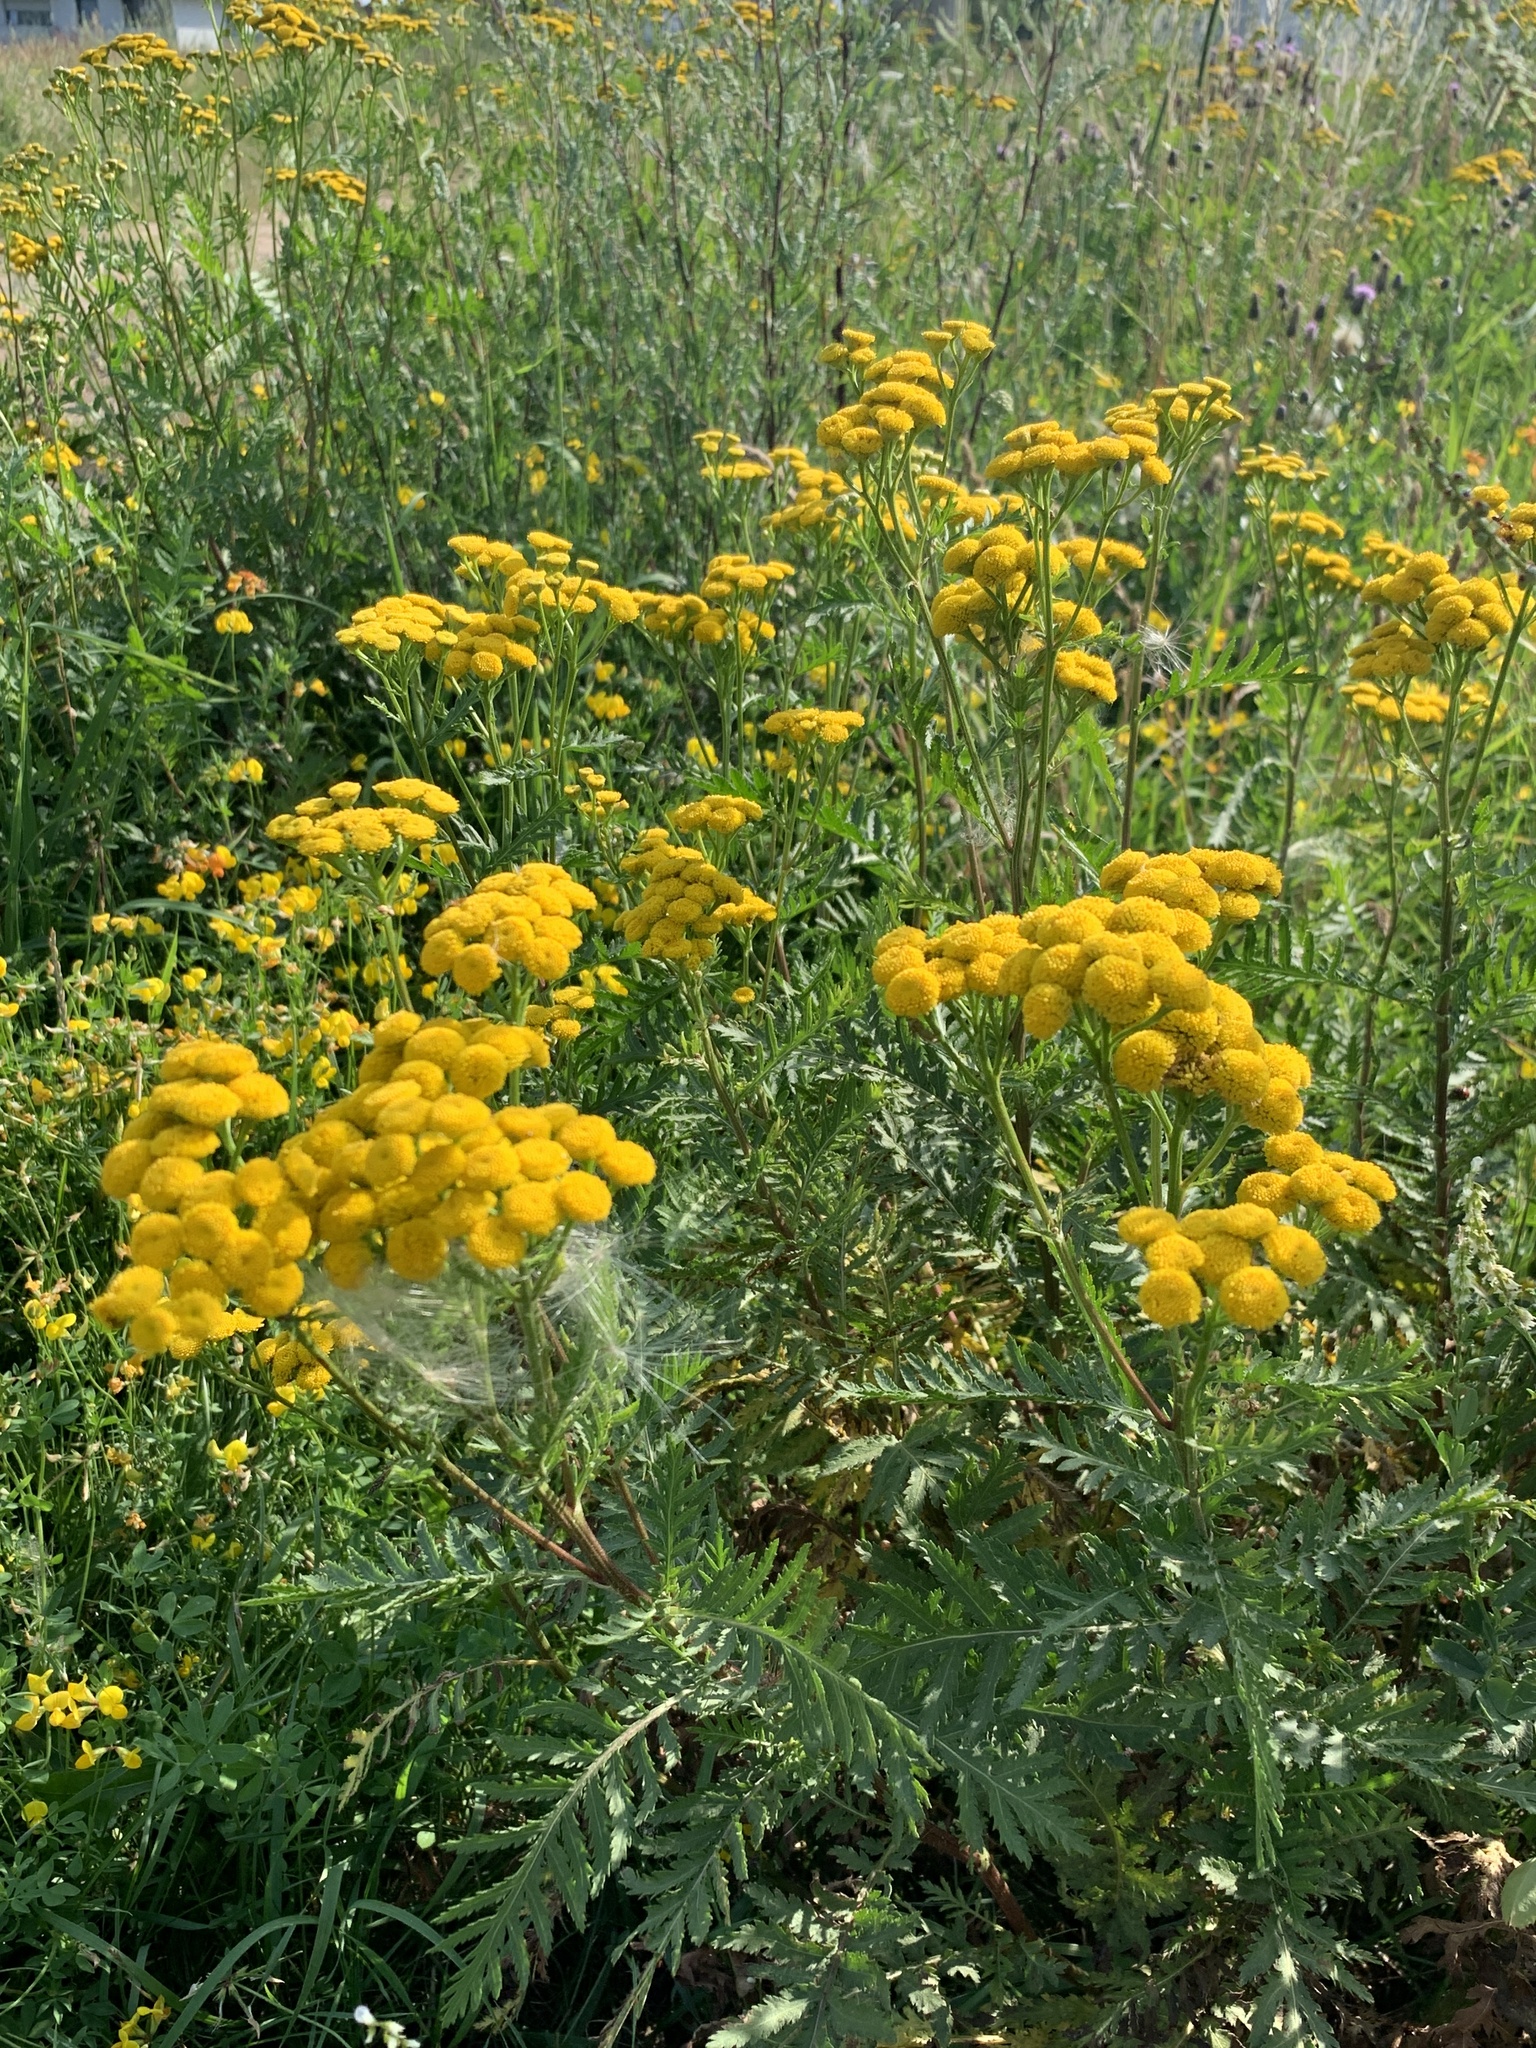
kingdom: Plantae
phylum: Tracheophyta
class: Magnoliopsida
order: Asterales
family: Asteraceae
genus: Tanacetum
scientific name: Tanacetum vulgare
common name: Common tansy
